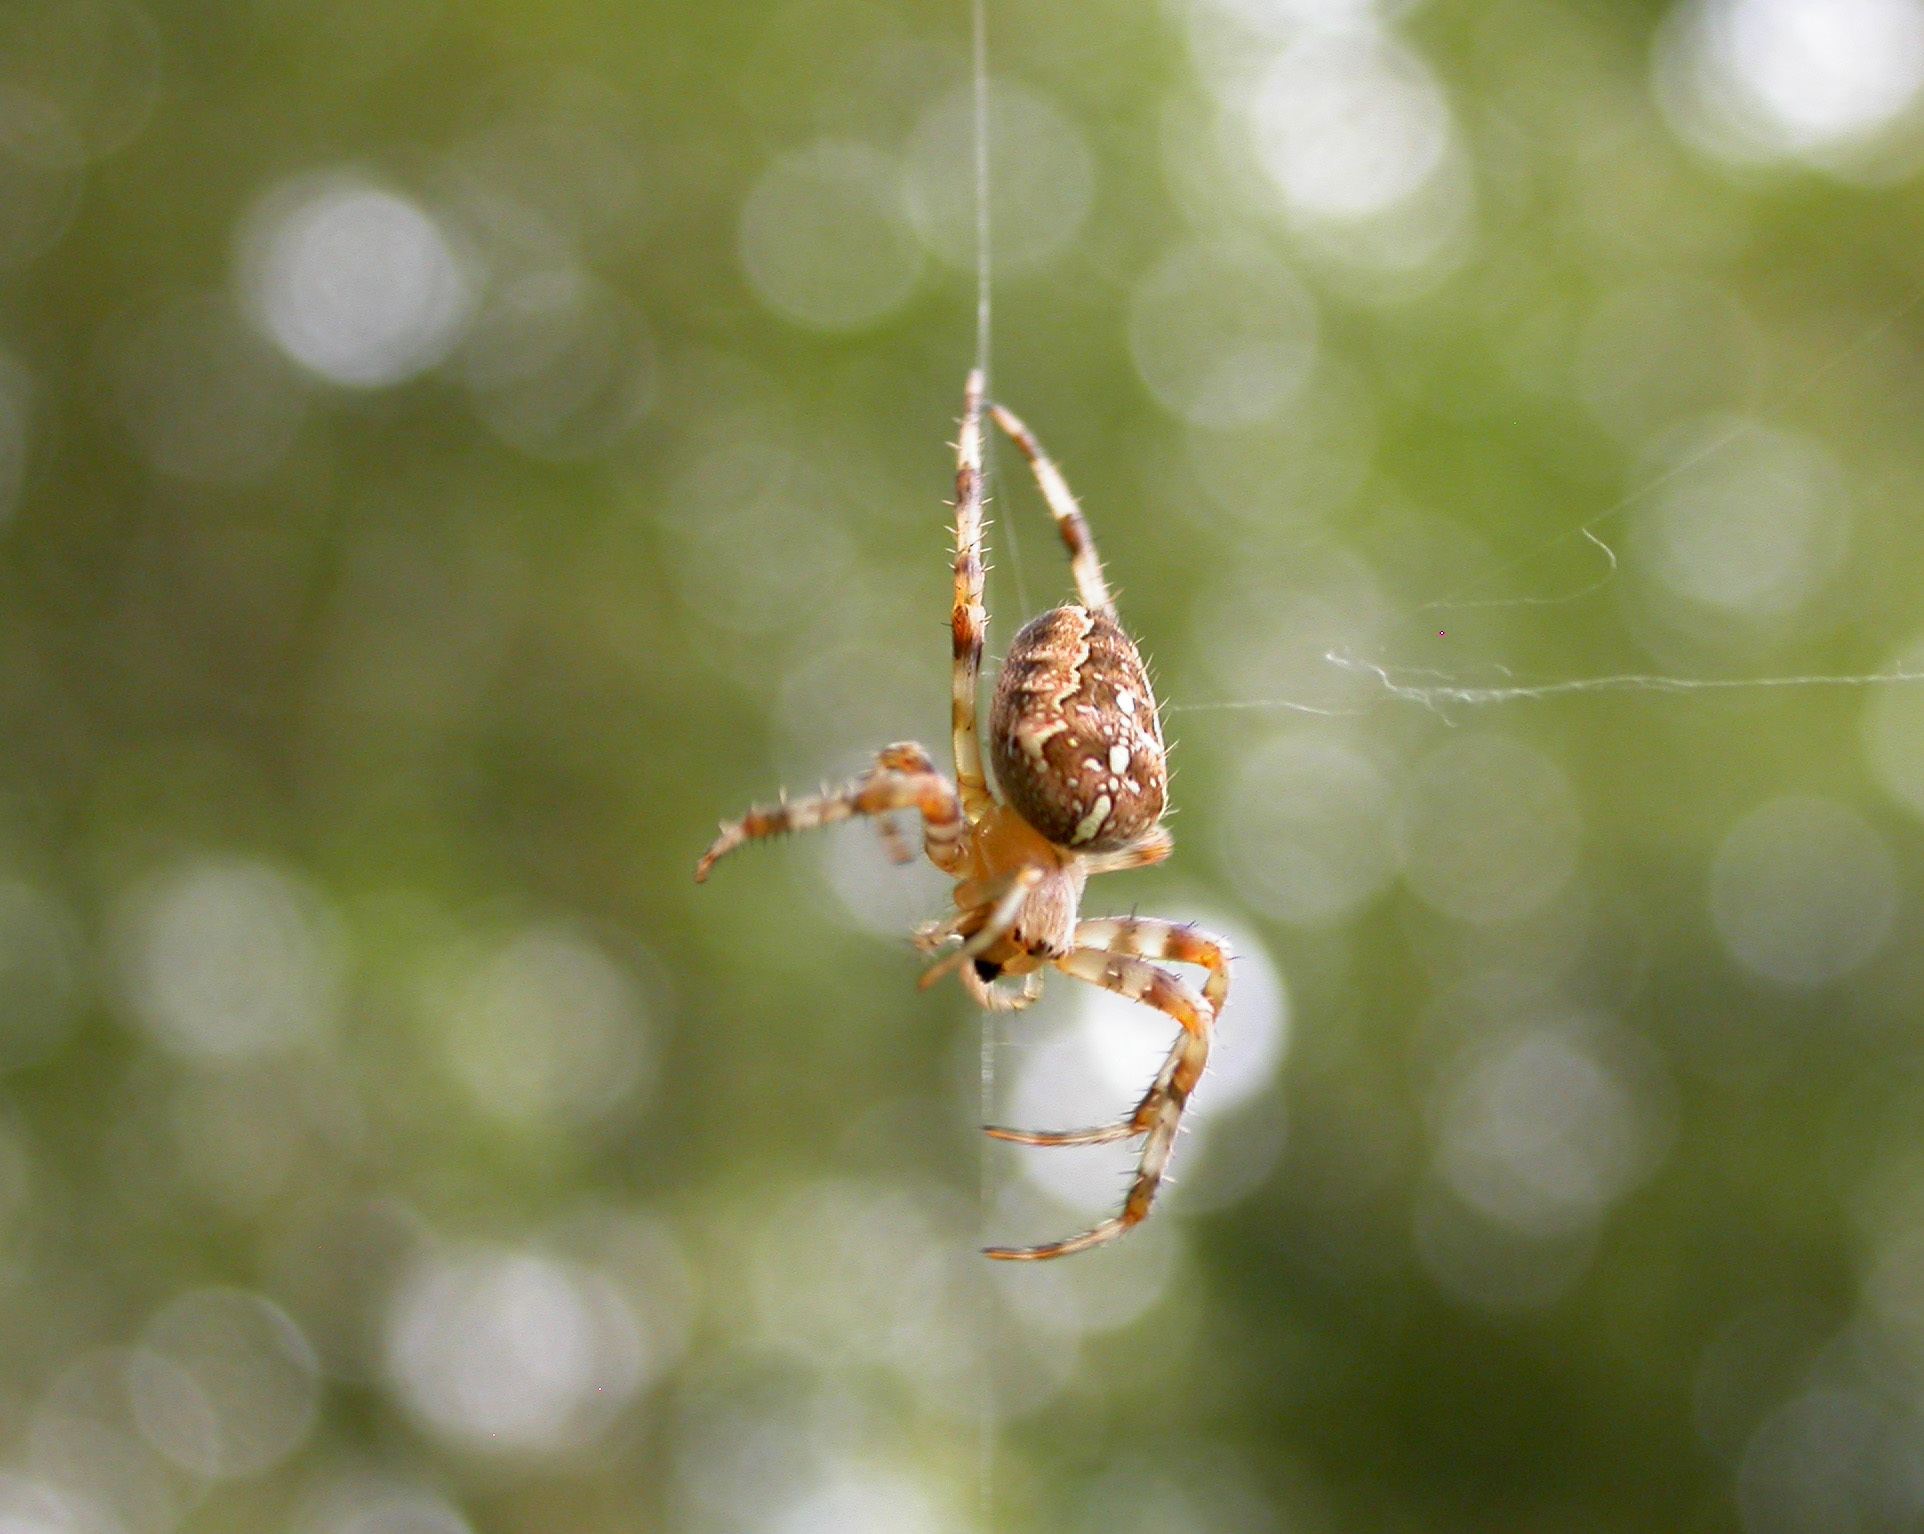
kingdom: Animalia
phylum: Arthropoda
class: Arachnida
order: Araneae
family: Araneidae
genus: Araneus
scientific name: Araneus diadematus
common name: Cross orbweaver
